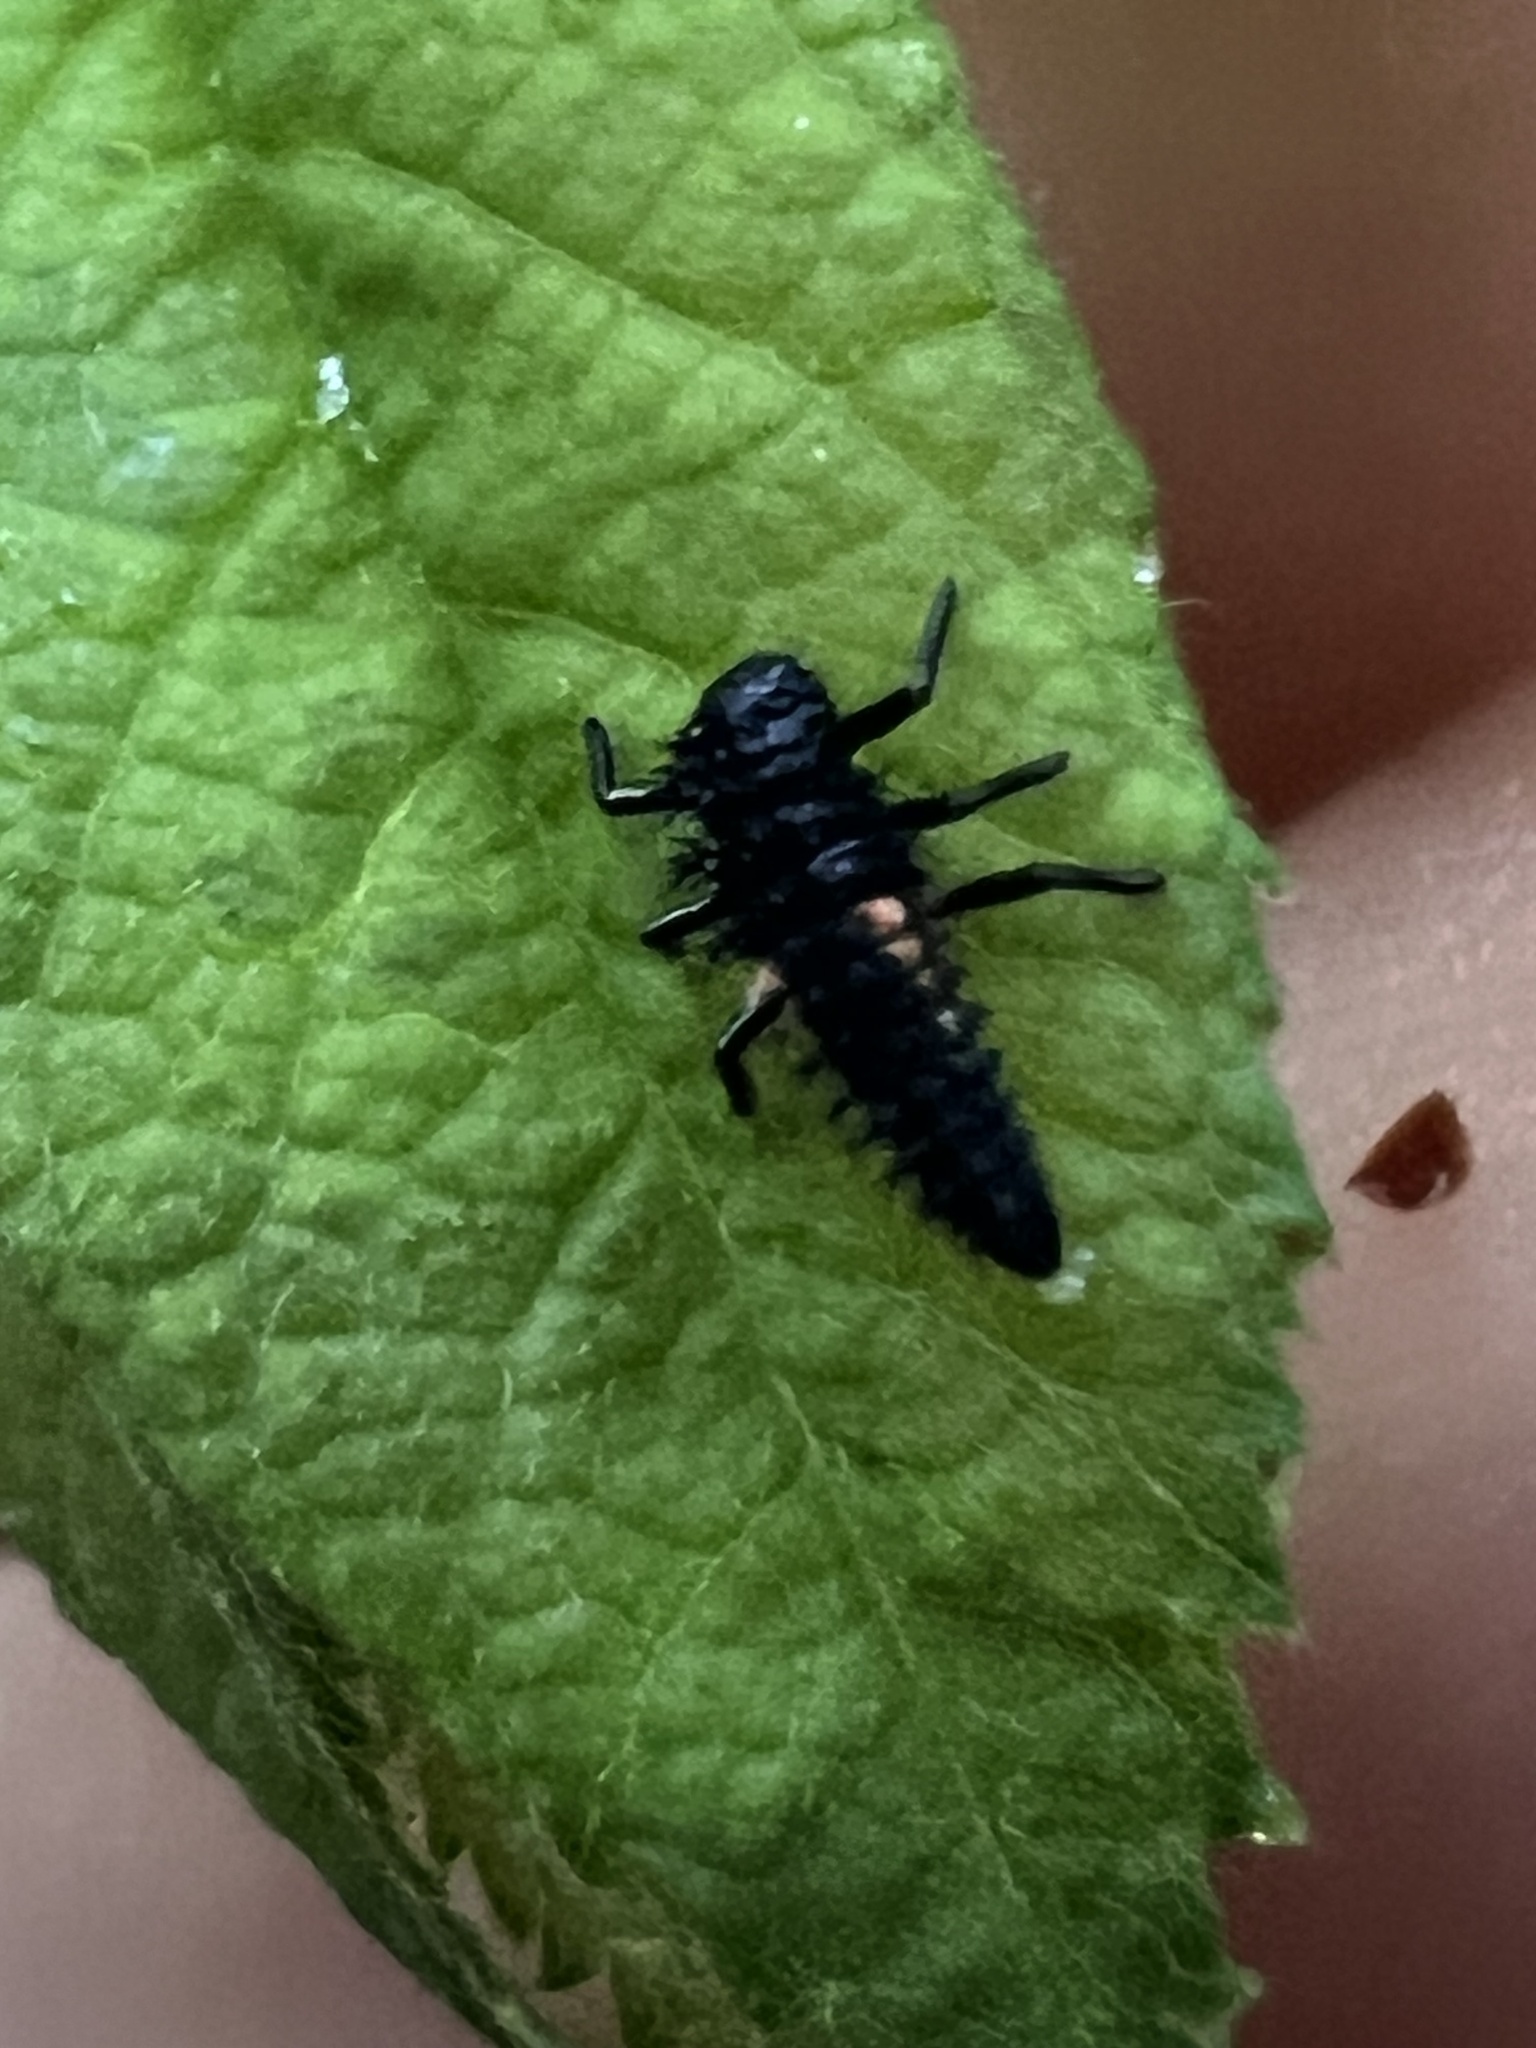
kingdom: Animalia
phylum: Arthropoda
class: Insecta
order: Coleoptera
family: Coccinellidae
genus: Harmonia
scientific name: Harmonia axyridis
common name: Harlequin ladybird
